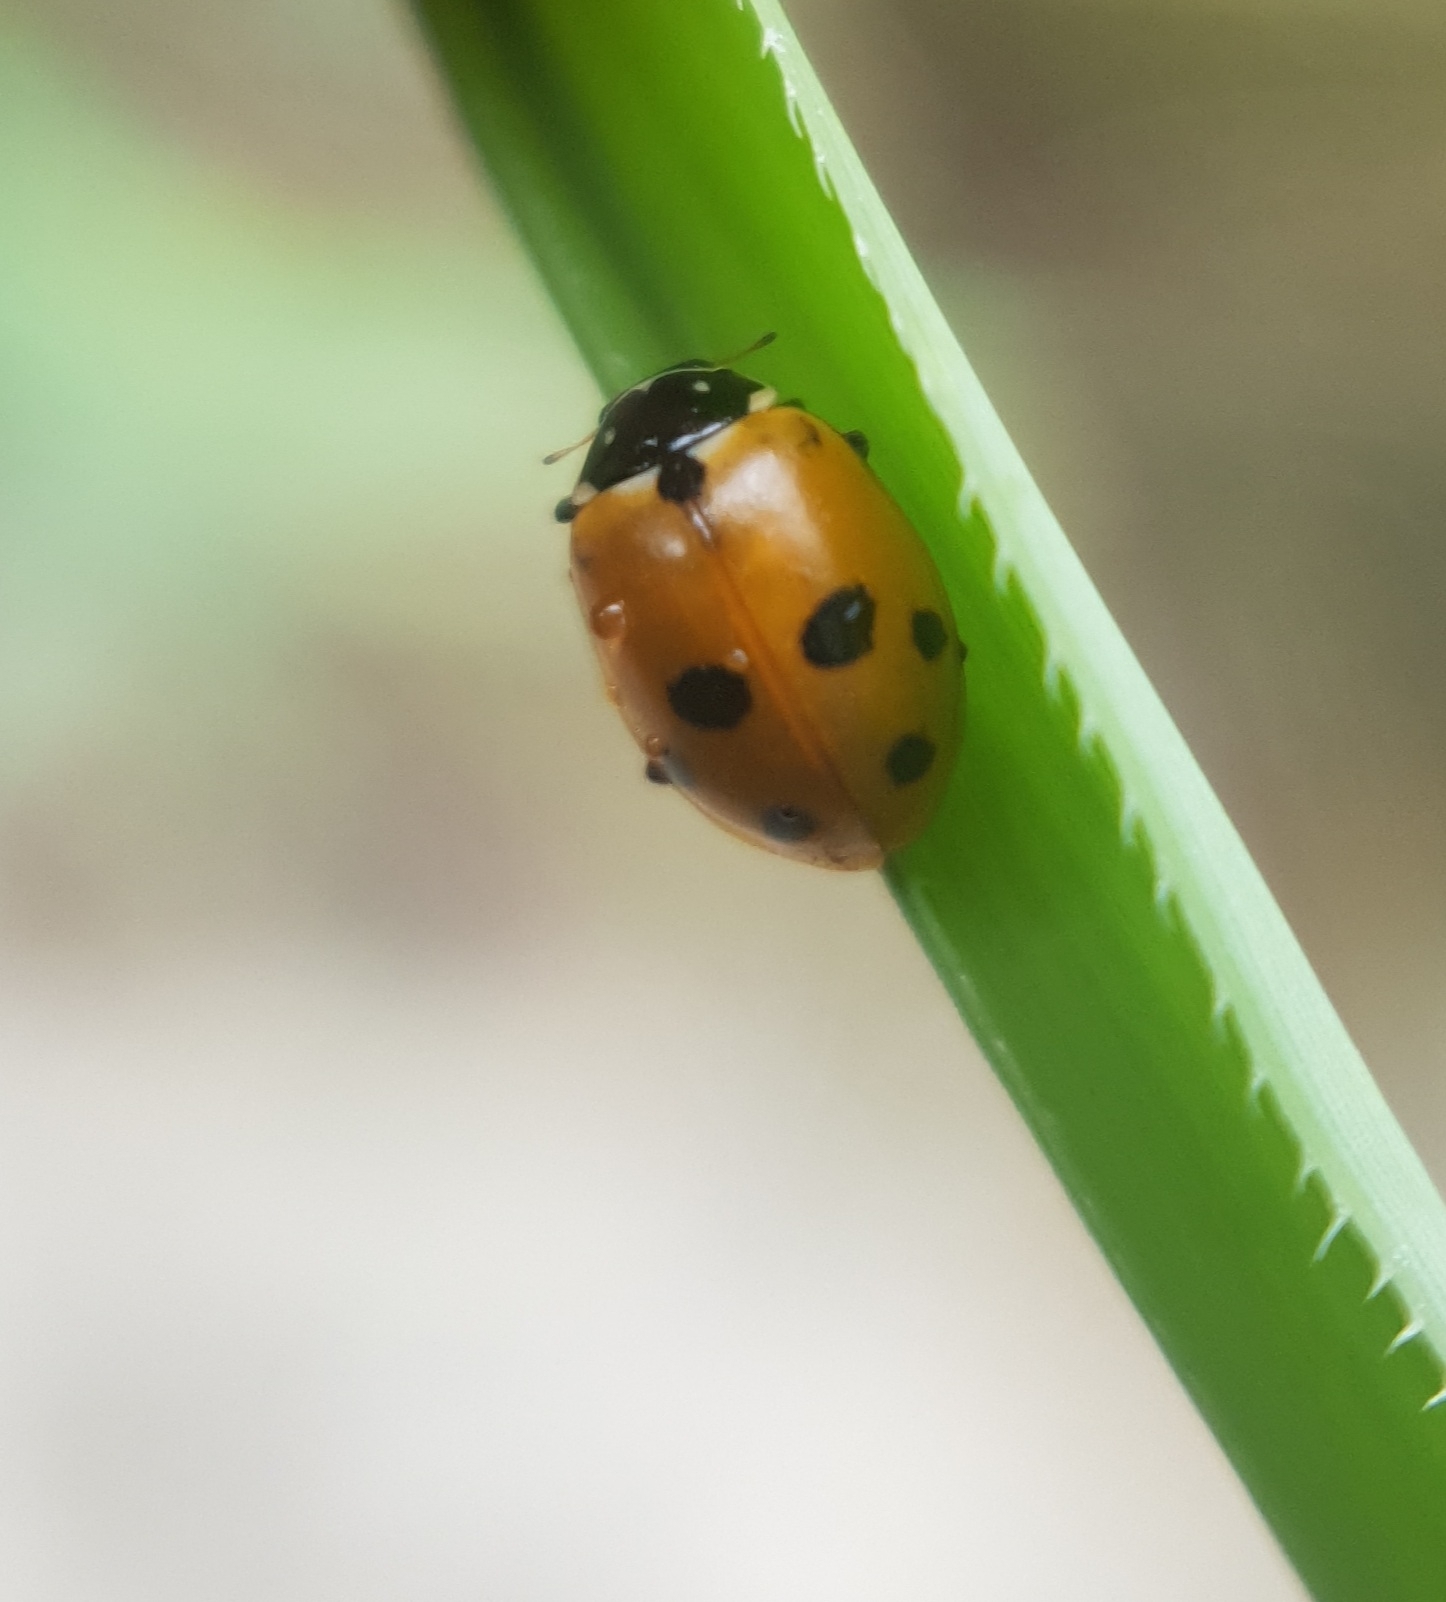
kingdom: Animalia
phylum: Arthropoda
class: Insecta
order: Coleoptera
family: Coccinellidae
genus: Hippodamia
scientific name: Hippodamia variegata
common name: Ladybird beetle
